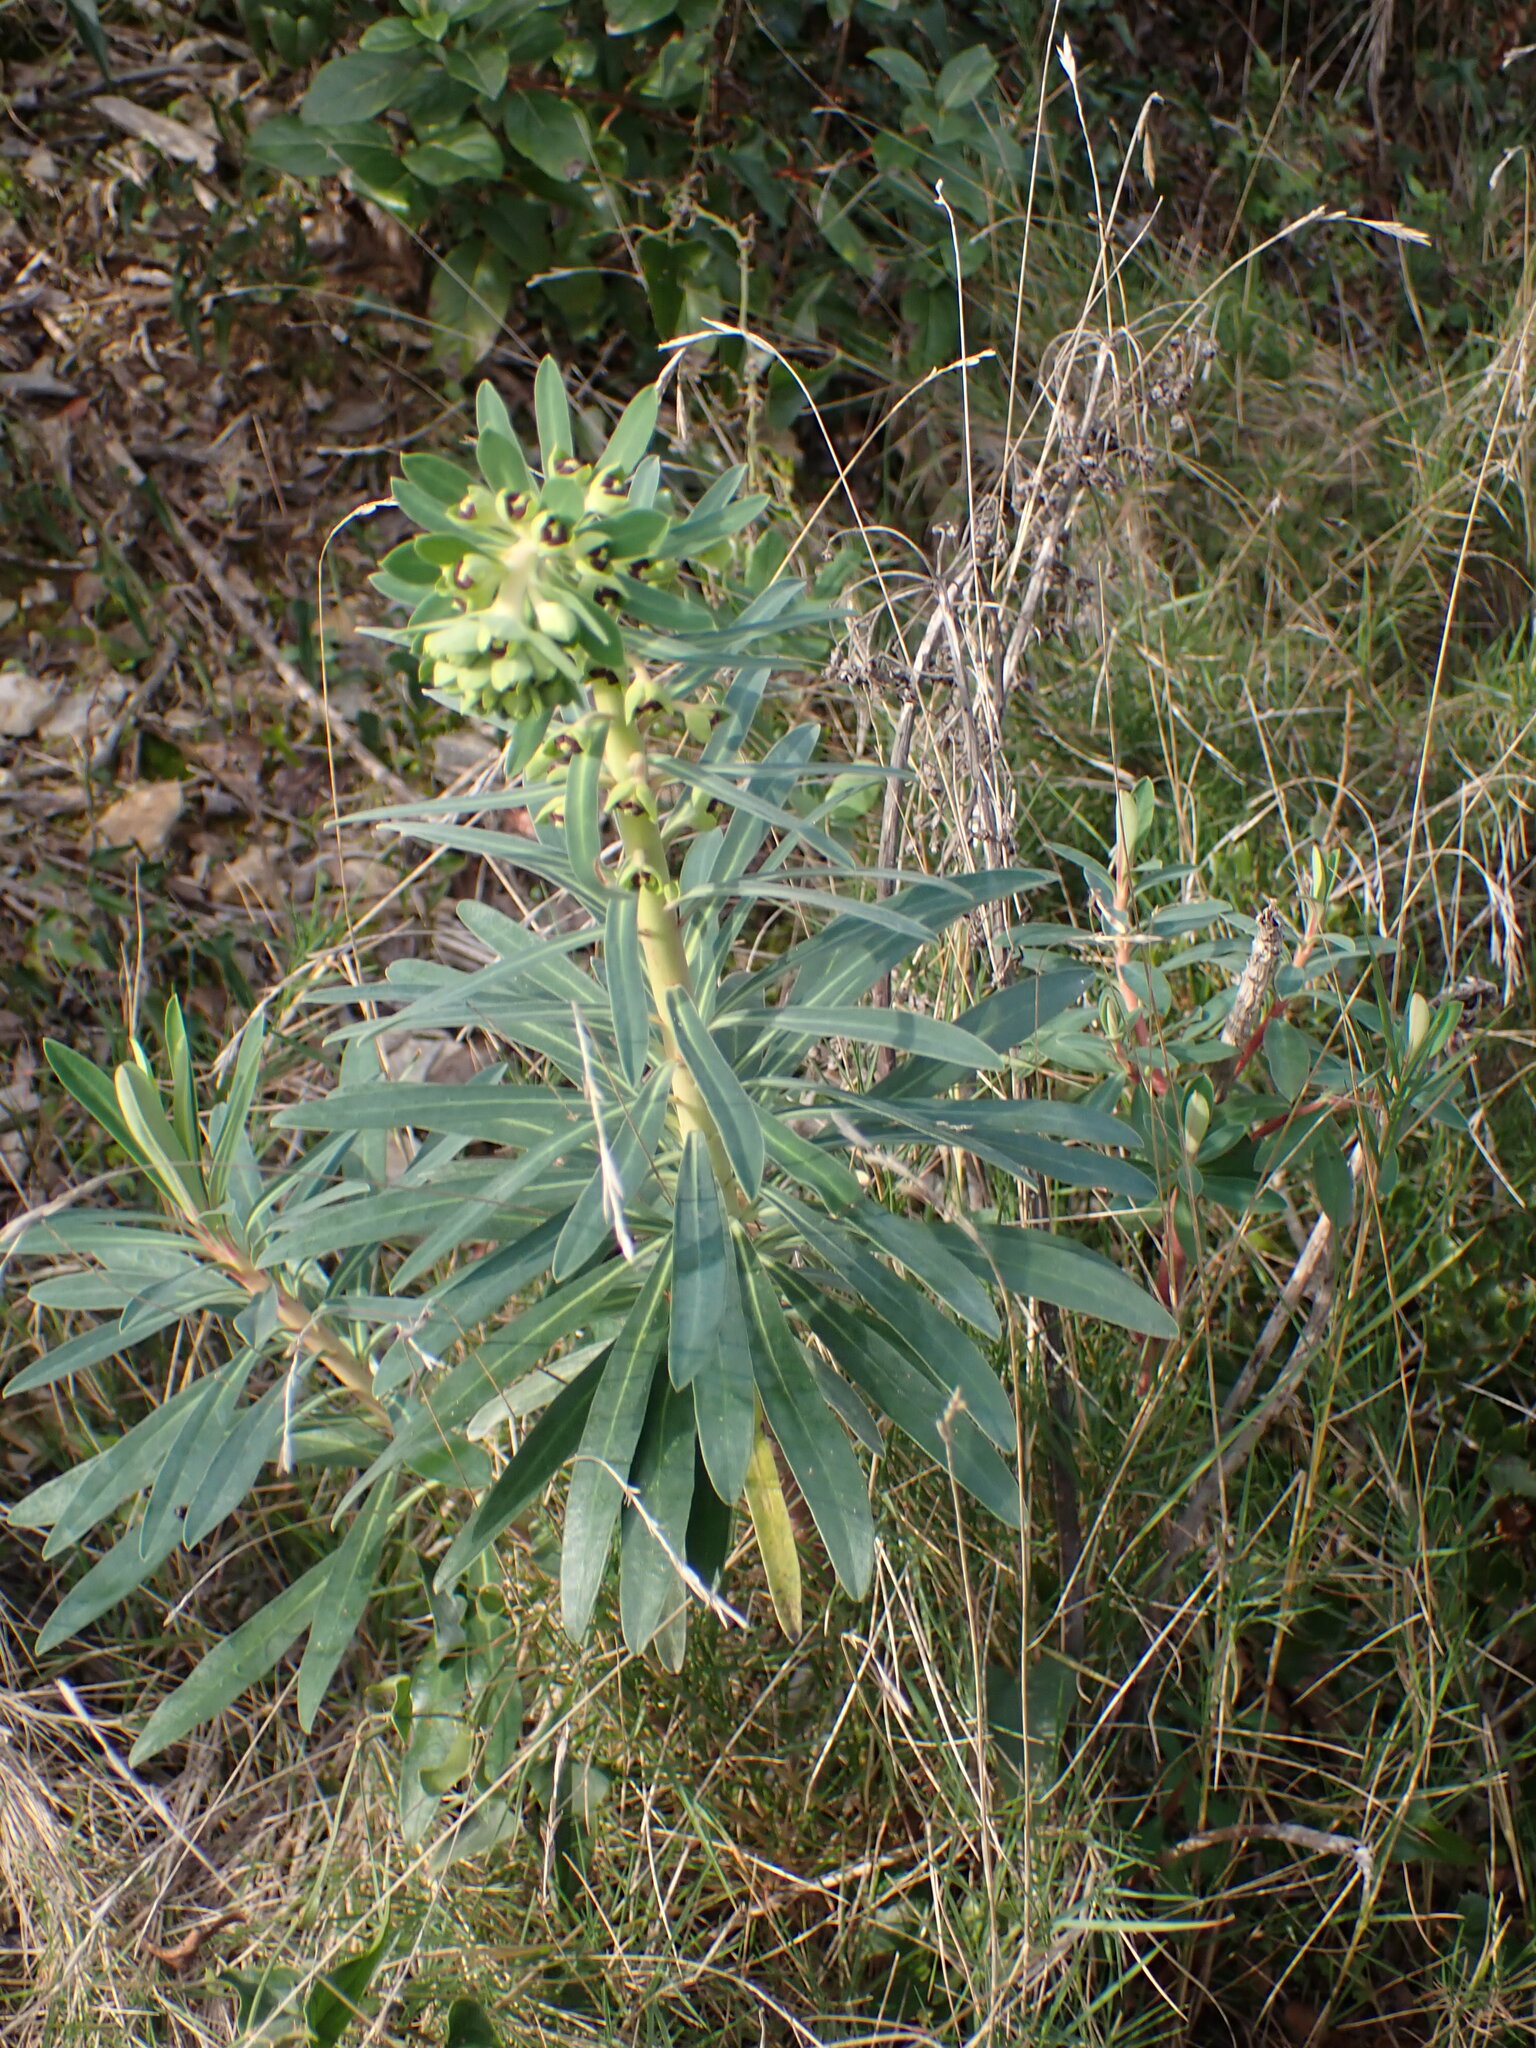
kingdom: Plantae
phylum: Tracheophyta
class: Magnoliopsida
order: Malpighiales
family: Euphorbiaceae
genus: Euphorbia
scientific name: Euphorbia characias
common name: Mediterranean spurge
